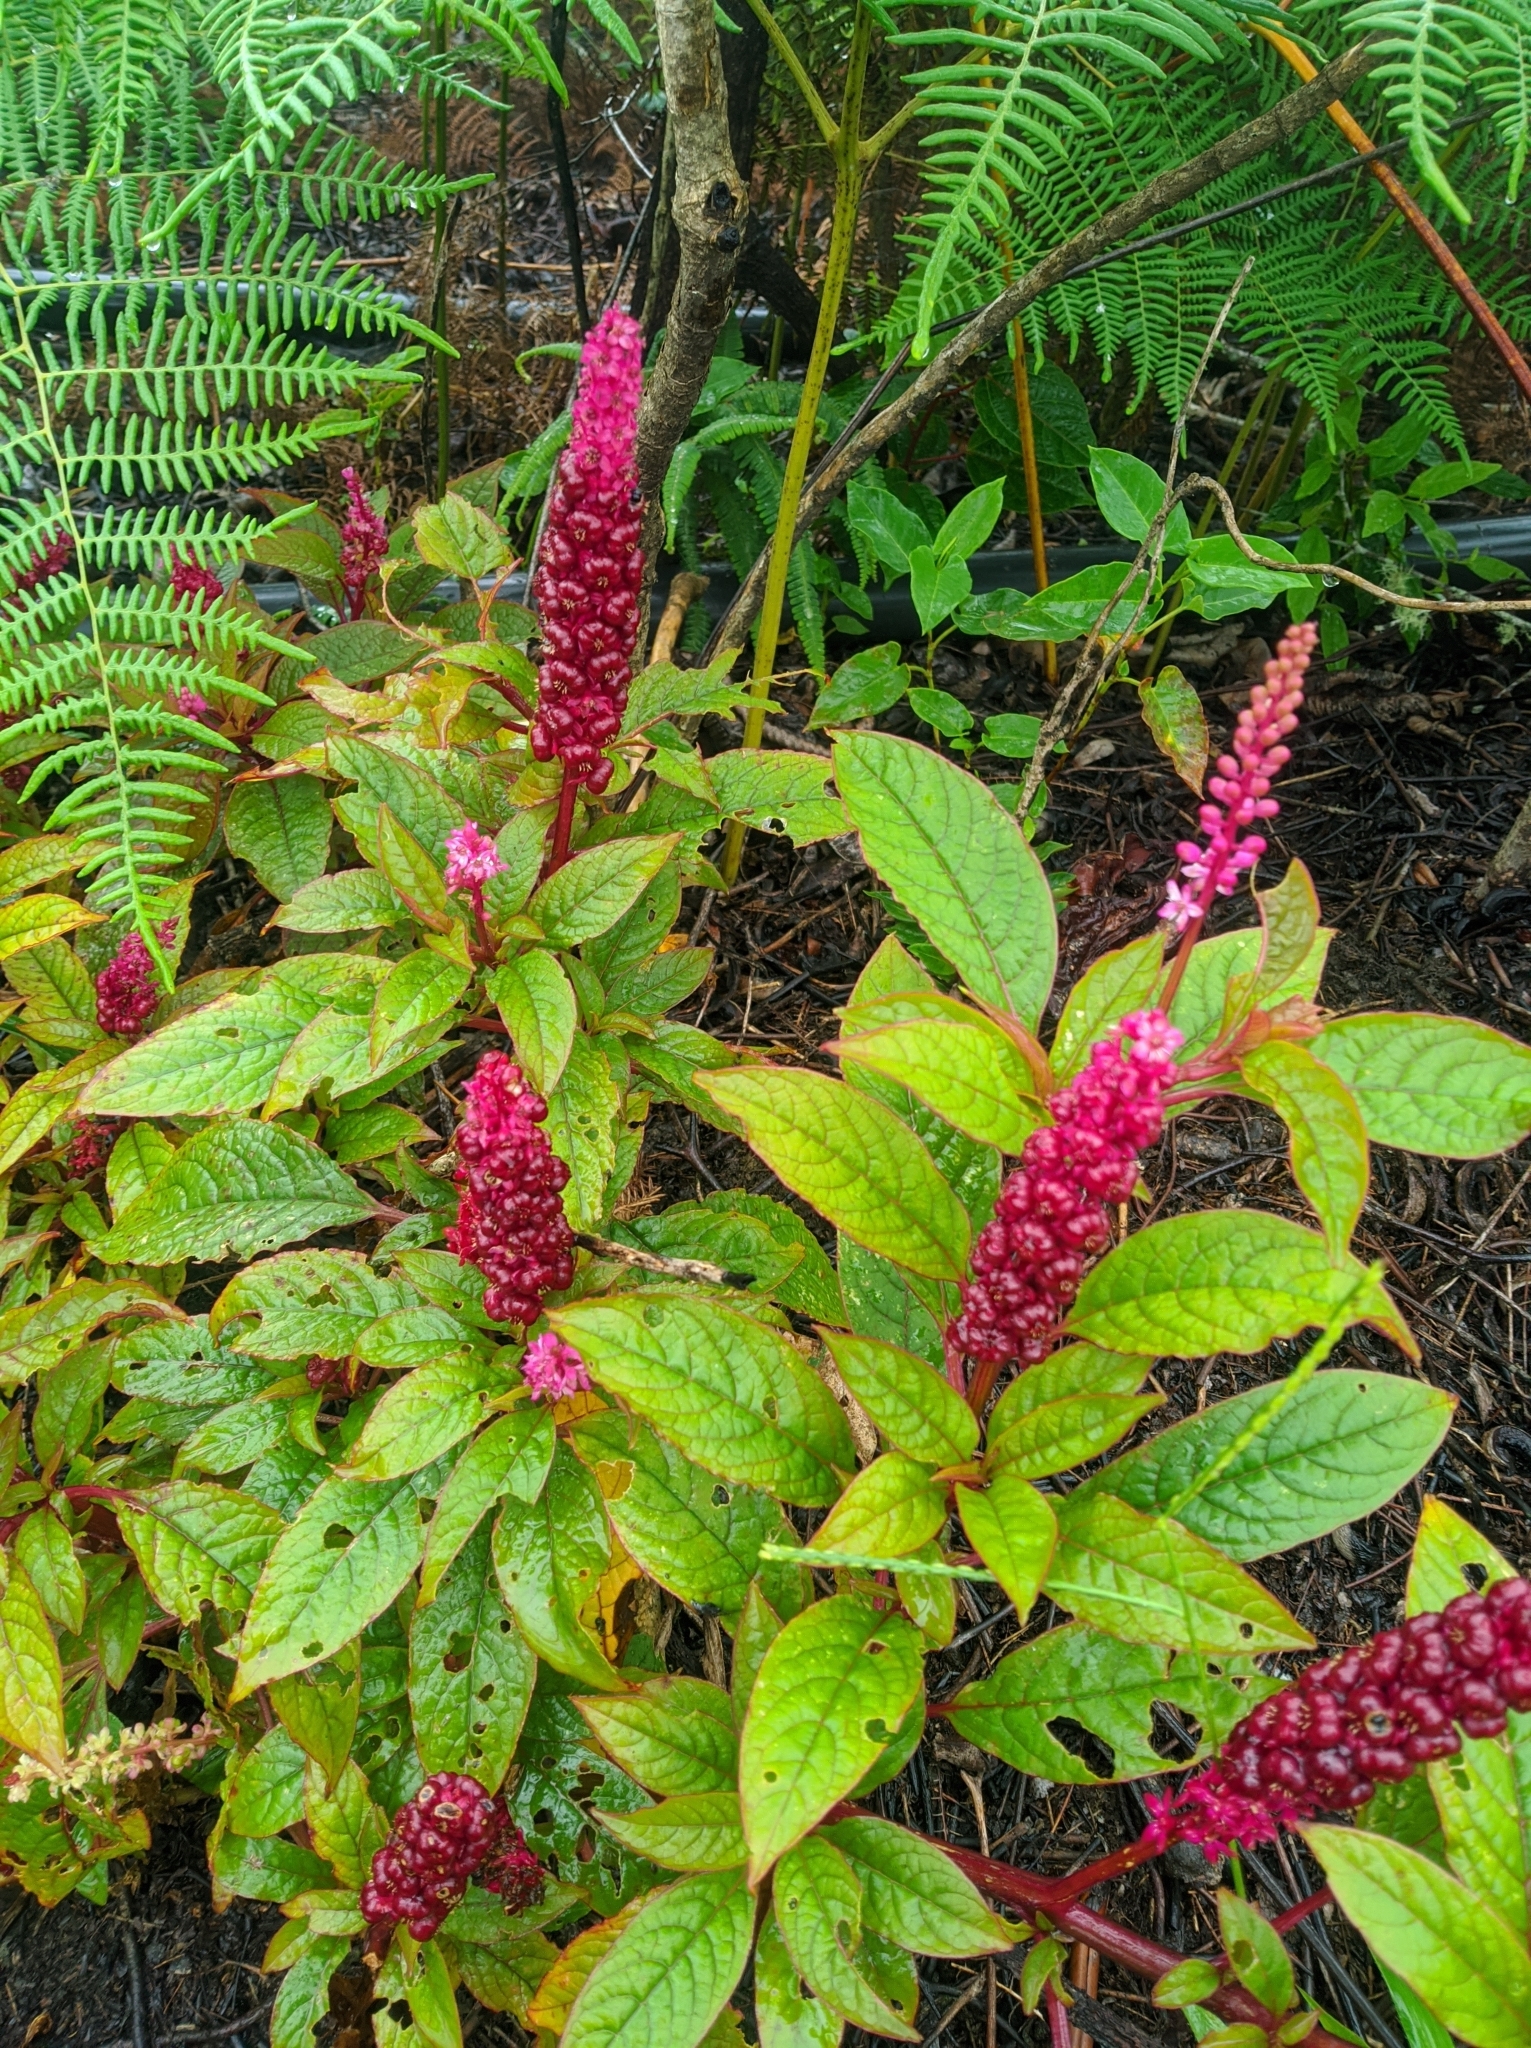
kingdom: Plantae
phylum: Tracheophyta
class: Magnoliopsida
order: Caryophyllales
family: Phytolaccaceae
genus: Phytolacca
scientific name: Phytolacca rugosa
